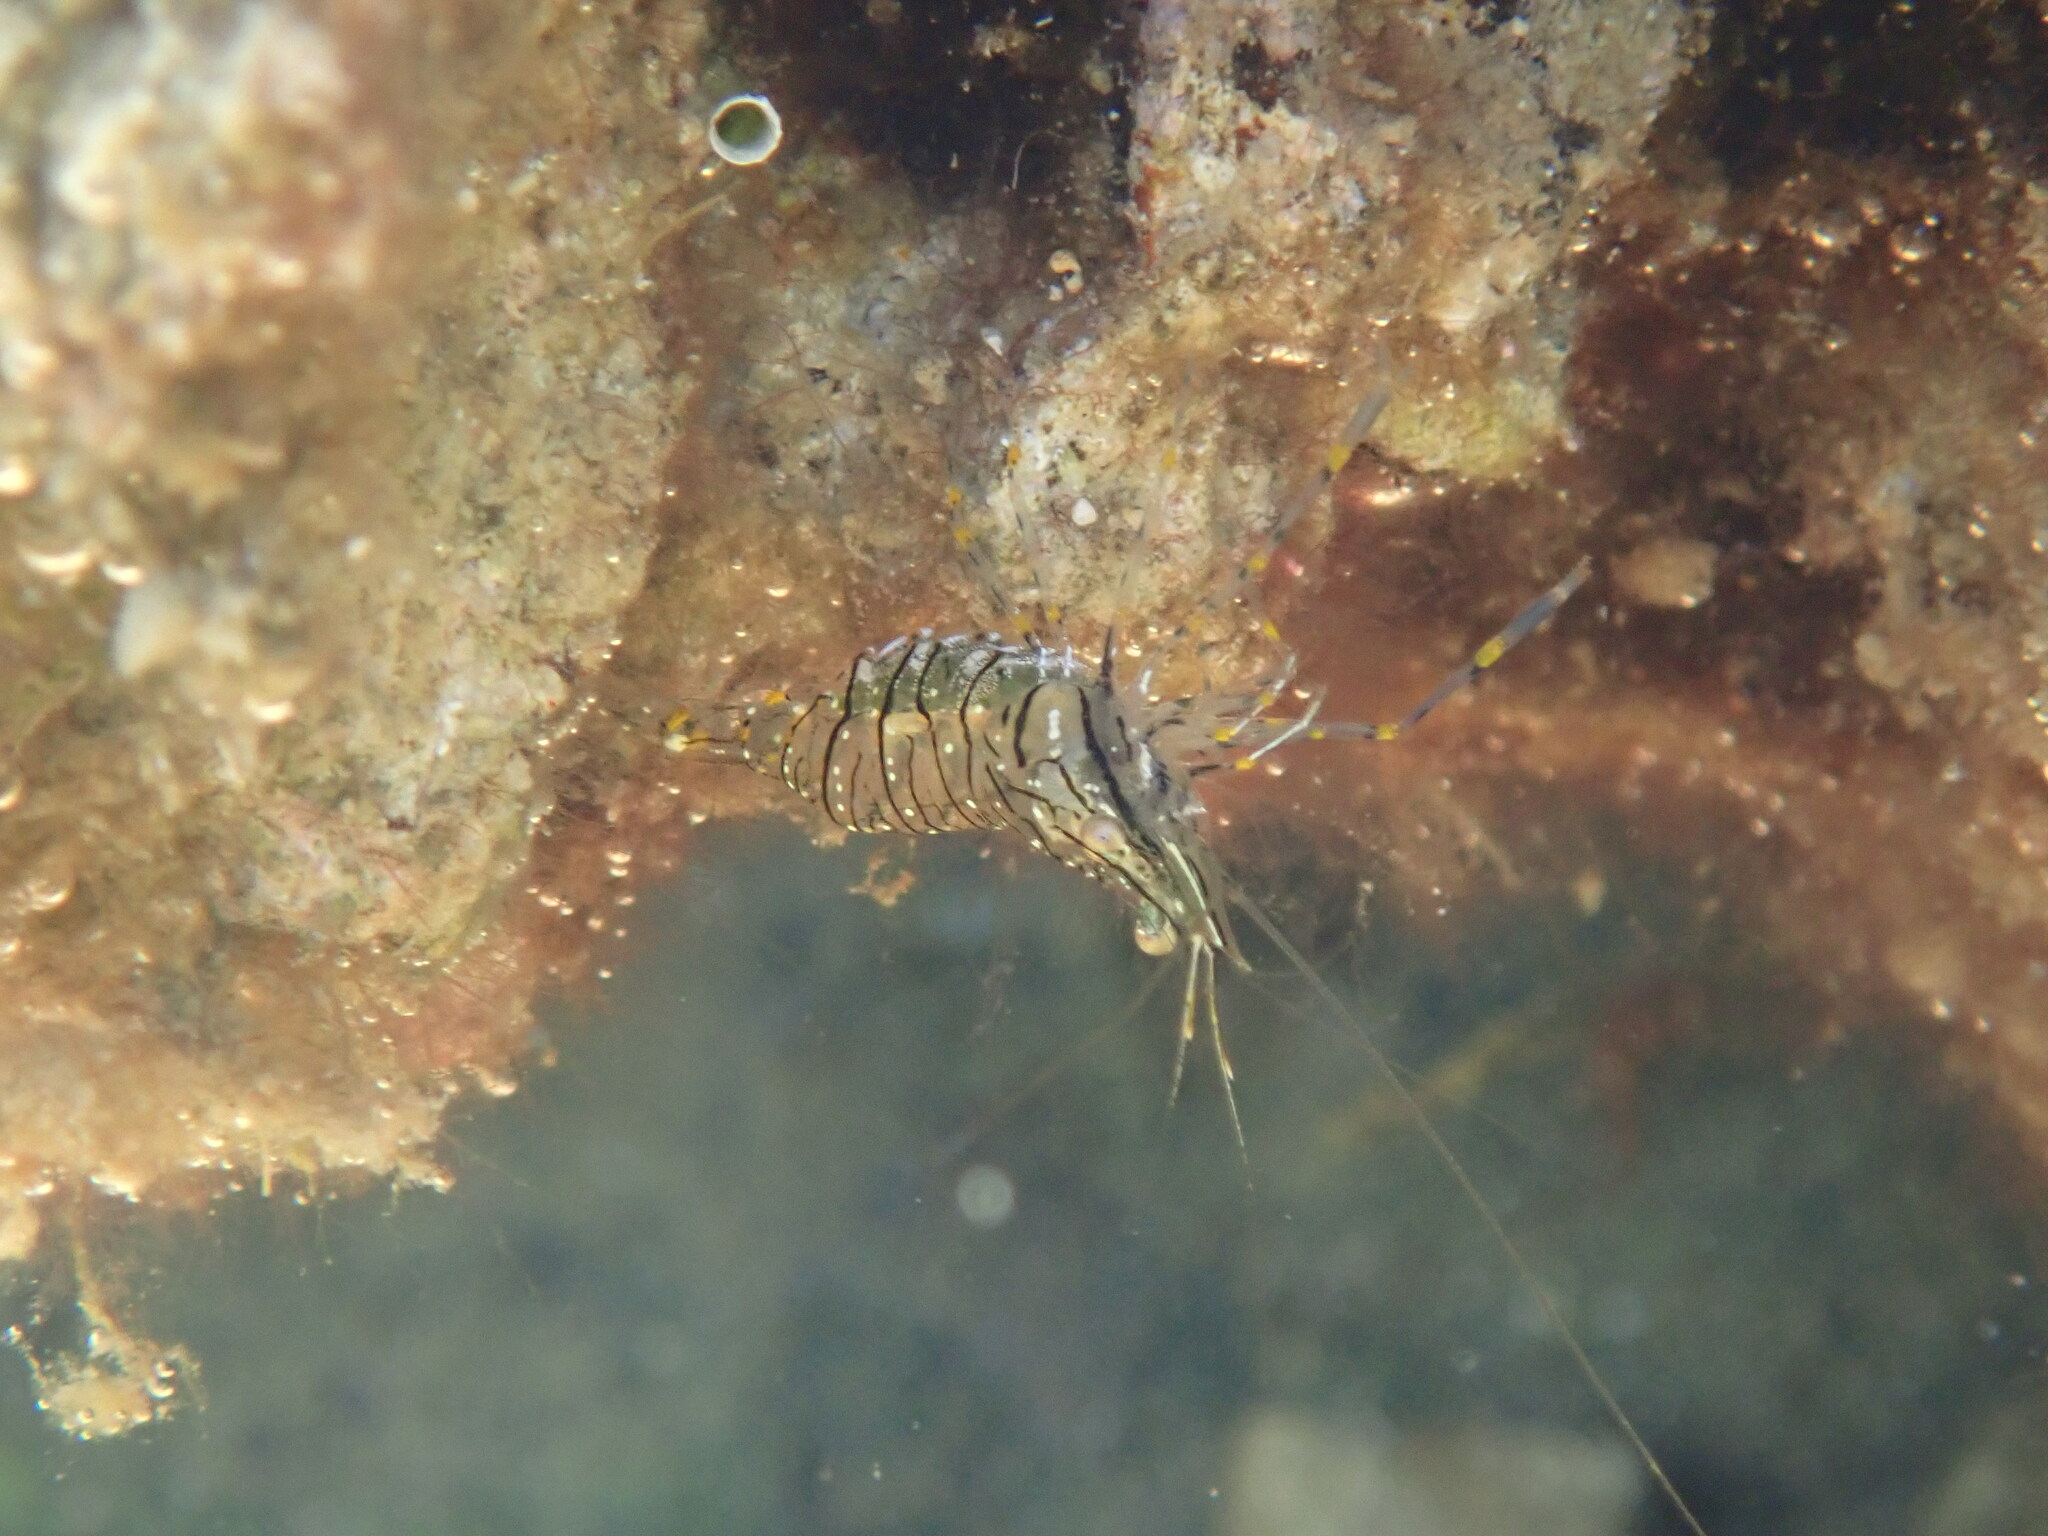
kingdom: Animalia
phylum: Arthropoda
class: Malacostraca
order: Decapoda
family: Palaemonidae
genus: Palaemon
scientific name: Palaemon elegans
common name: Grass prawm
